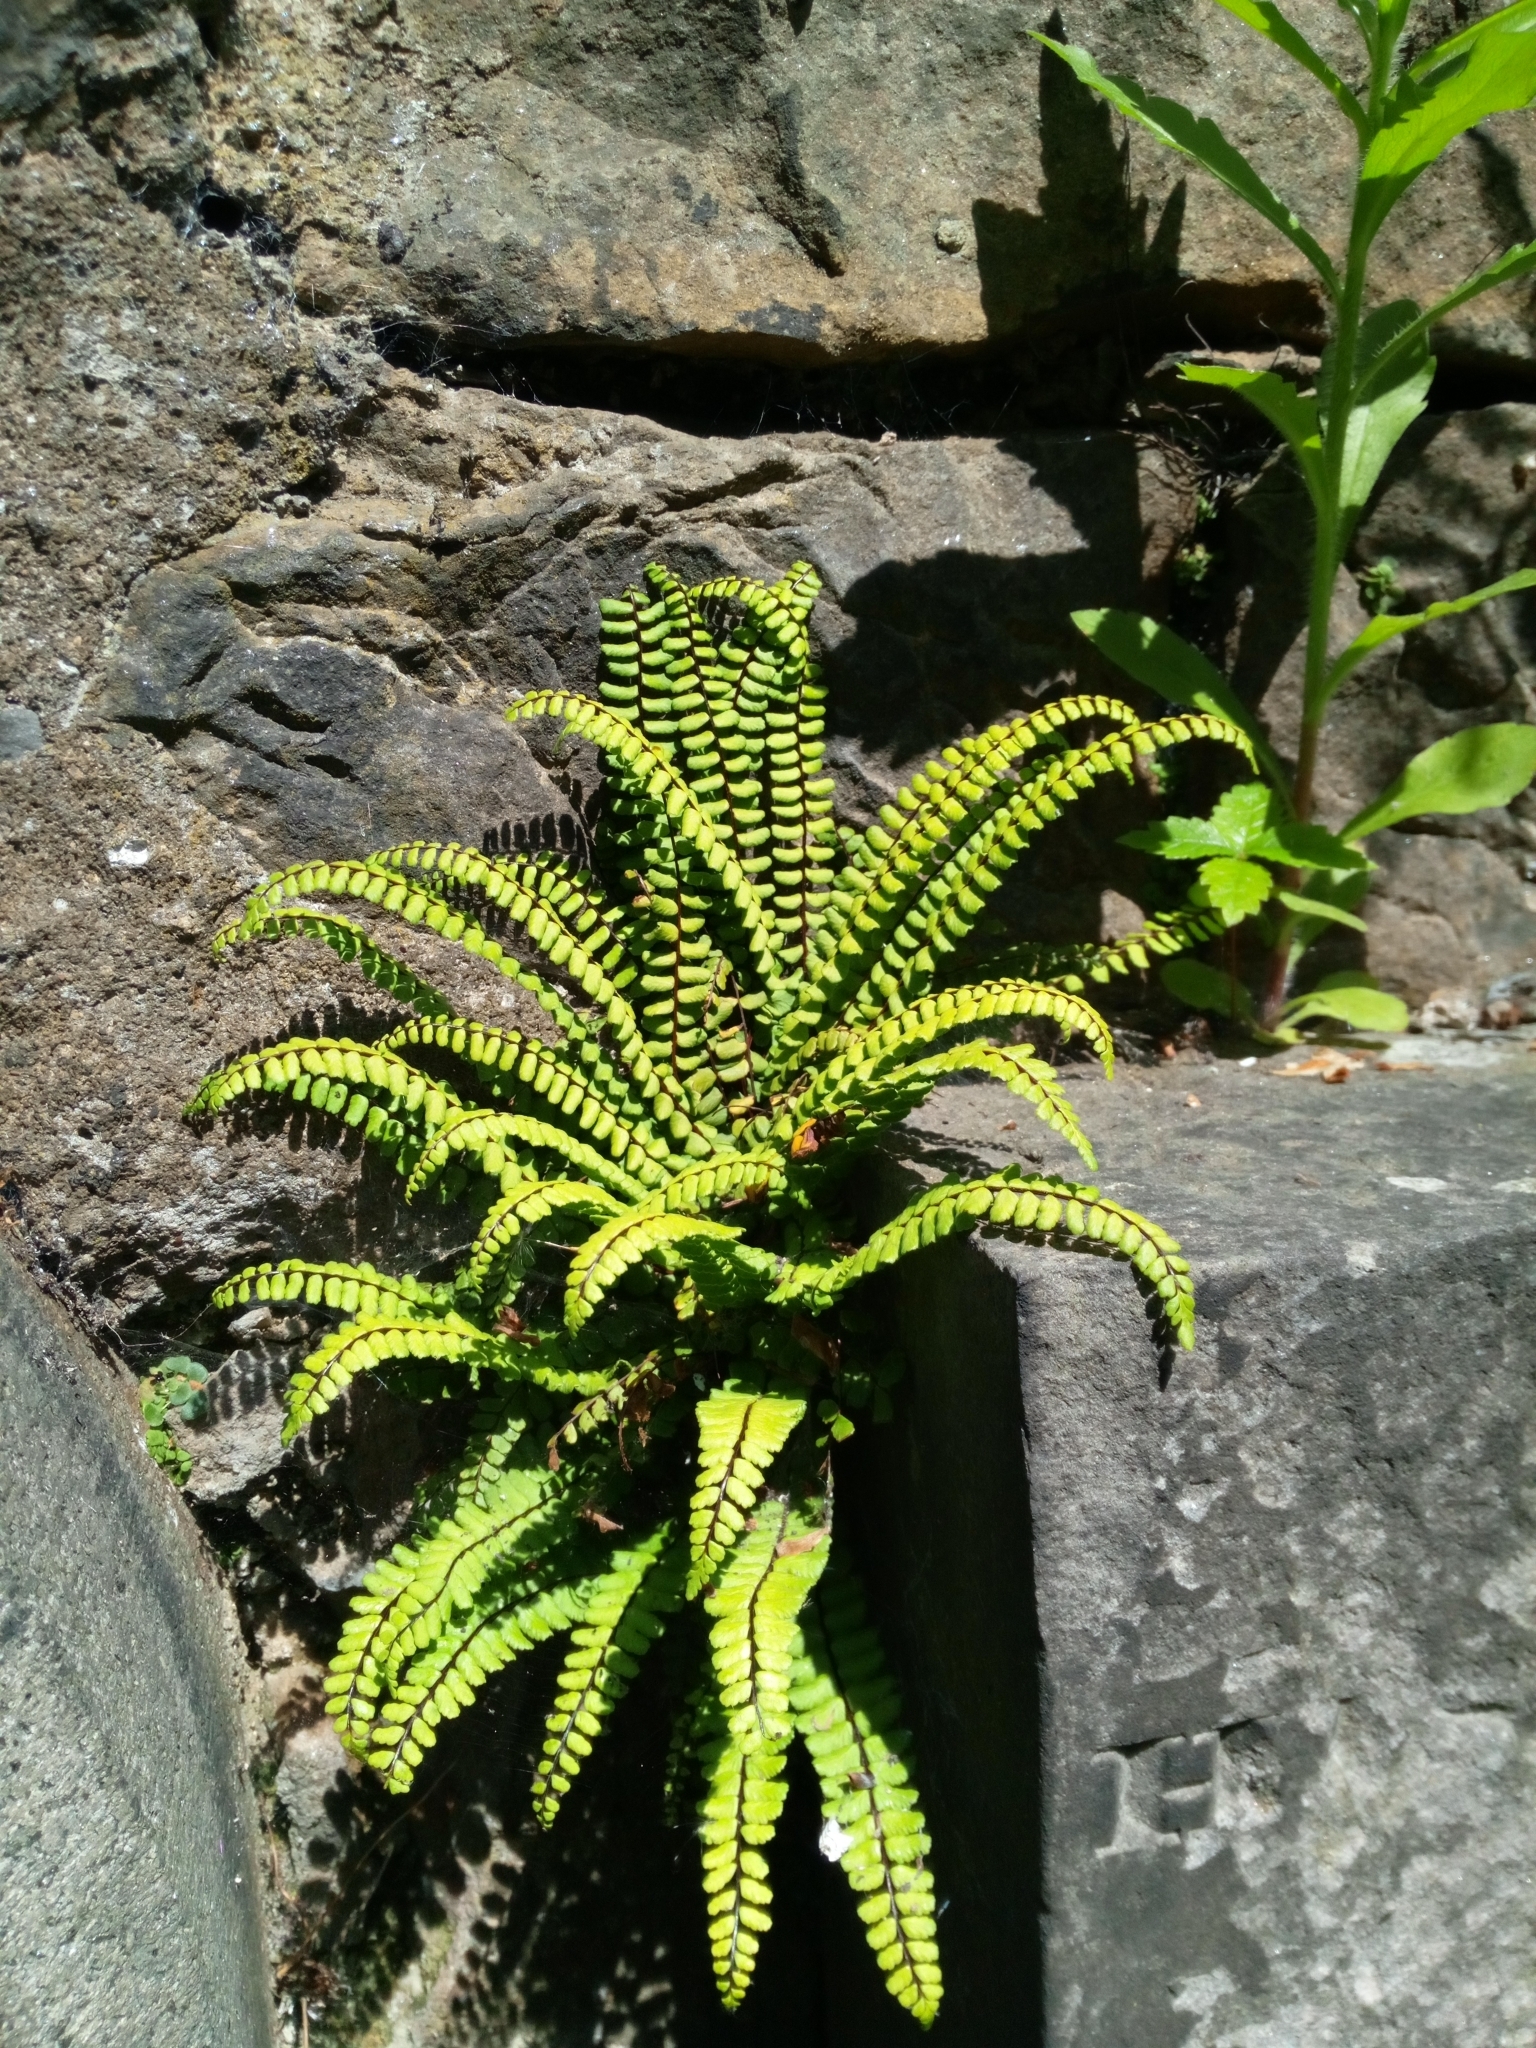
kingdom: Plantae
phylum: Tracheophyta
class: Polypodiopsida
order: Polypodiales
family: Aspleniaceae
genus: Asplenium
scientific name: Asplenium trichomanes
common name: Maidenhair spleenwort
